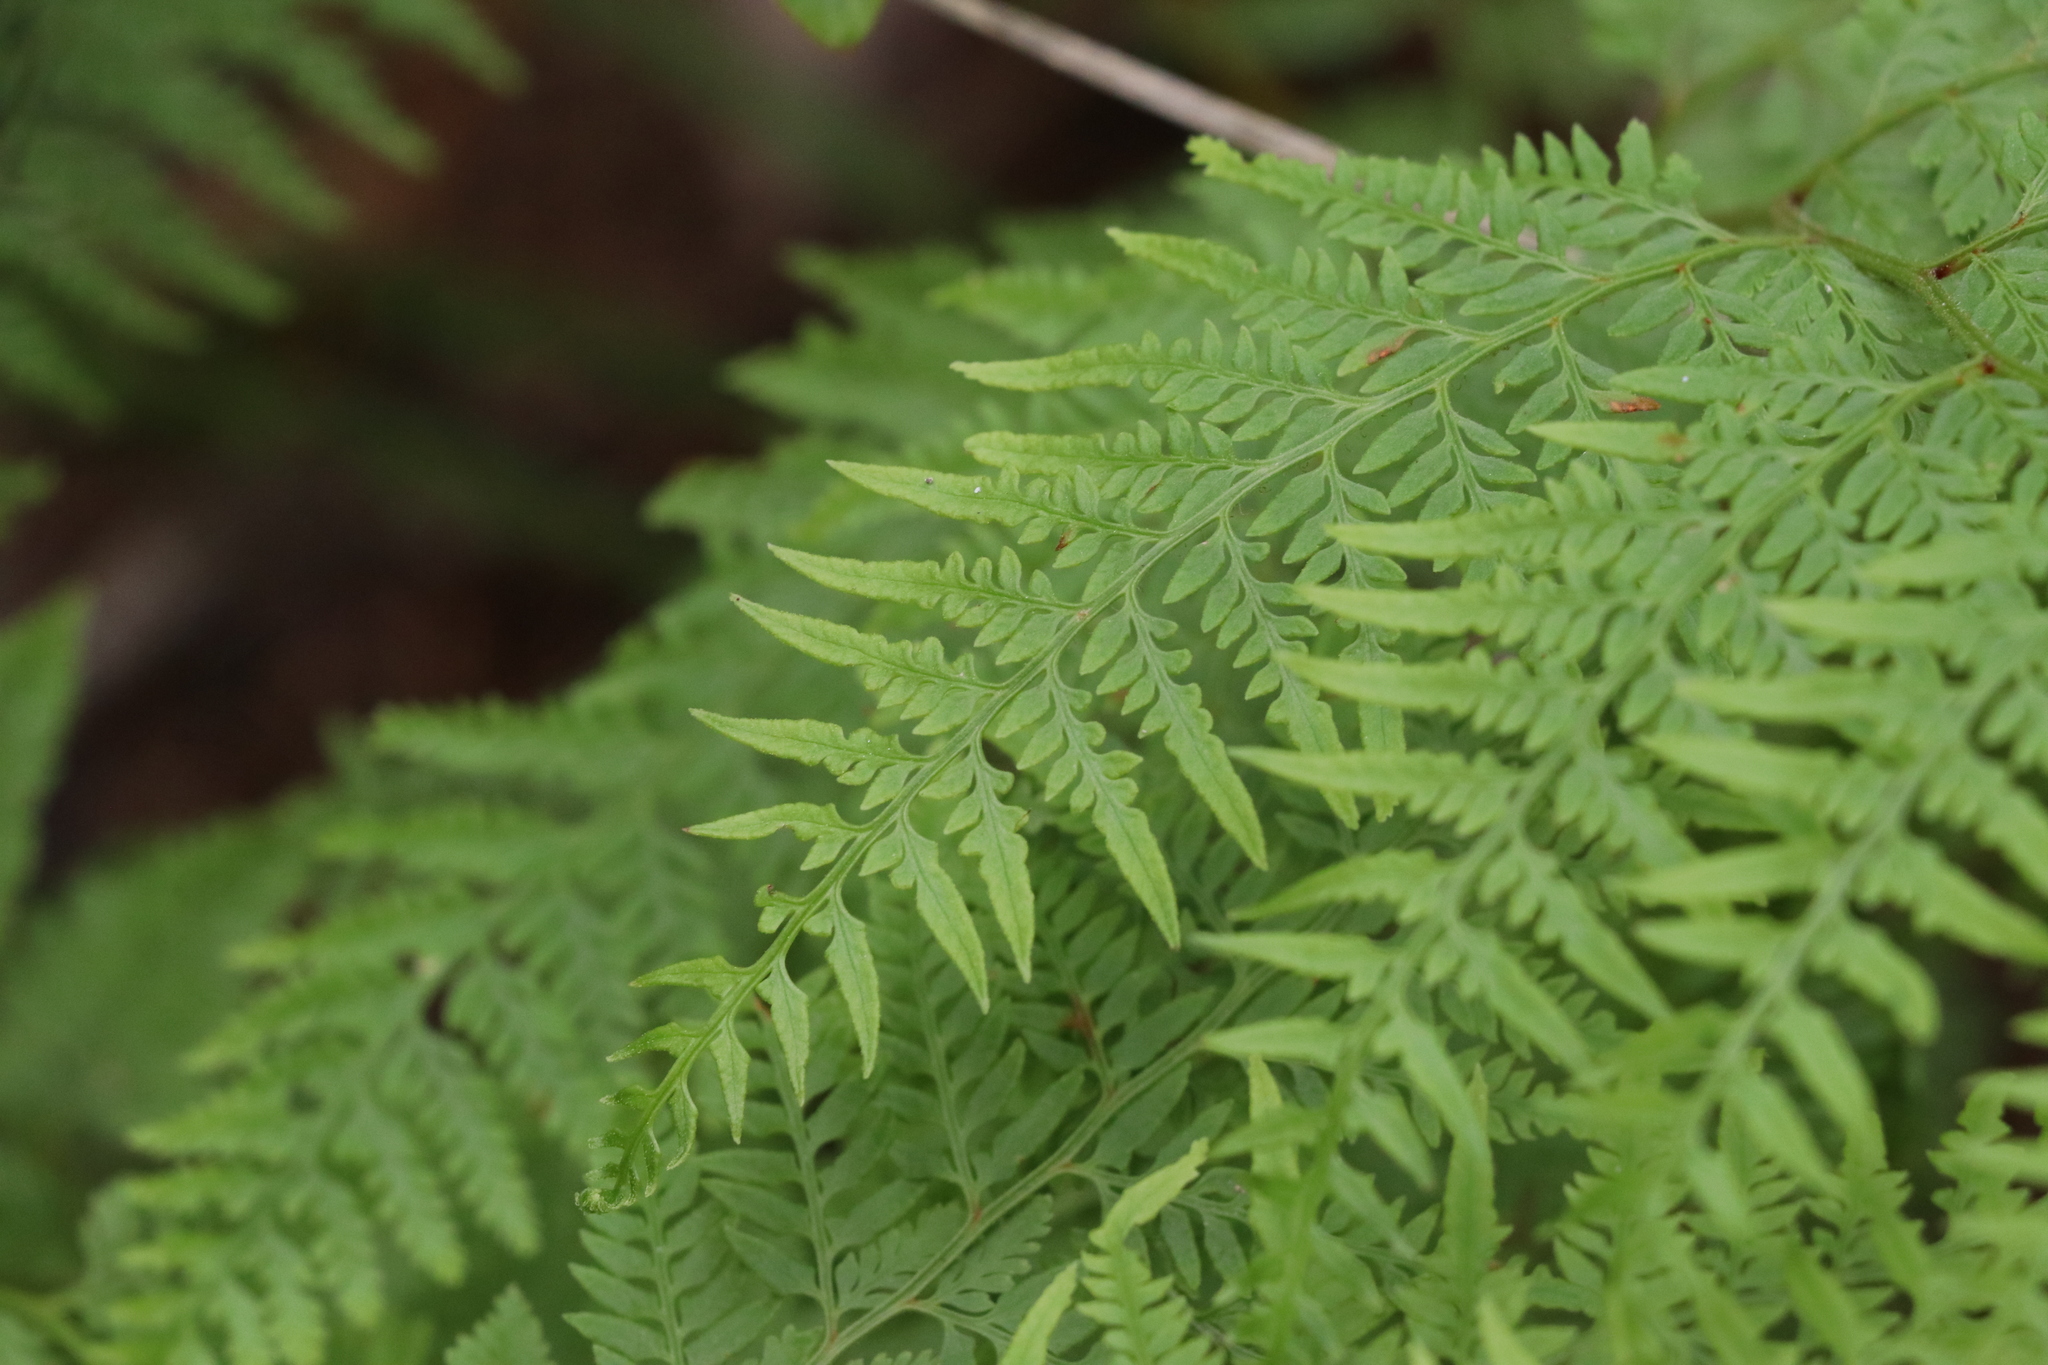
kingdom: Plantae
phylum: Tracheophyta
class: Polypodiopsida
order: Polypodiales
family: Dennstaedtiaceae
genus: Paesia
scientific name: Paesia scaberula
